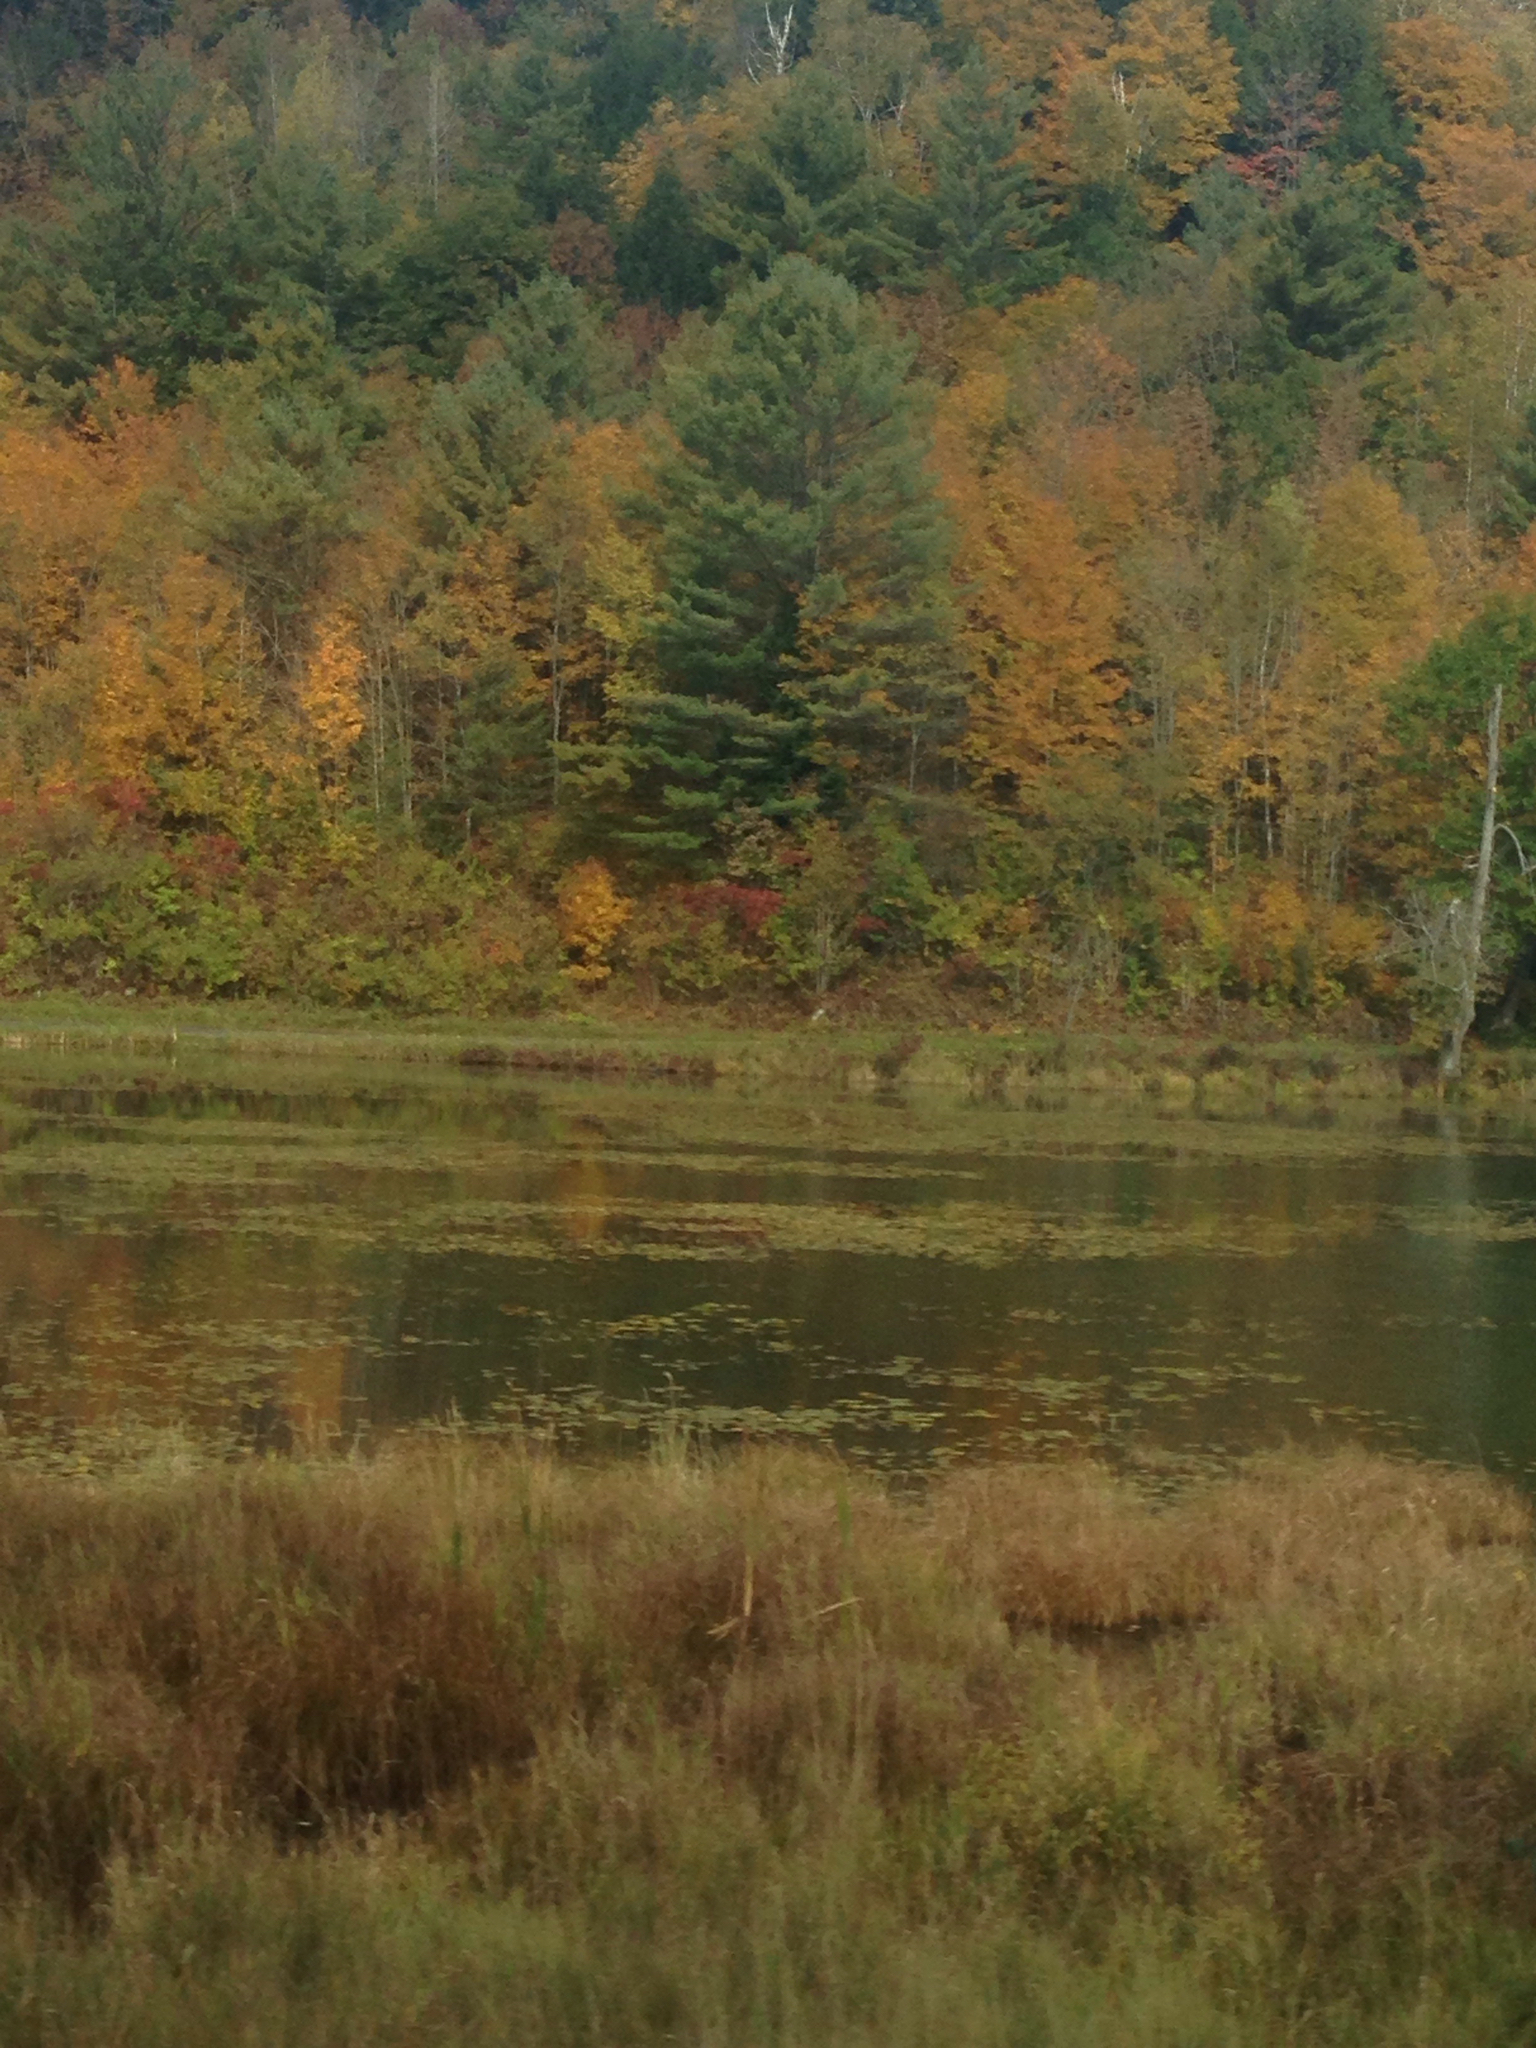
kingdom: Plantae
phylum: Tracheophyta
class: Pinopsida
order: Pinales
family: Pinaceae
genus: Pinus
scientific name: Pinus strobus
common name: Weymouth pine
